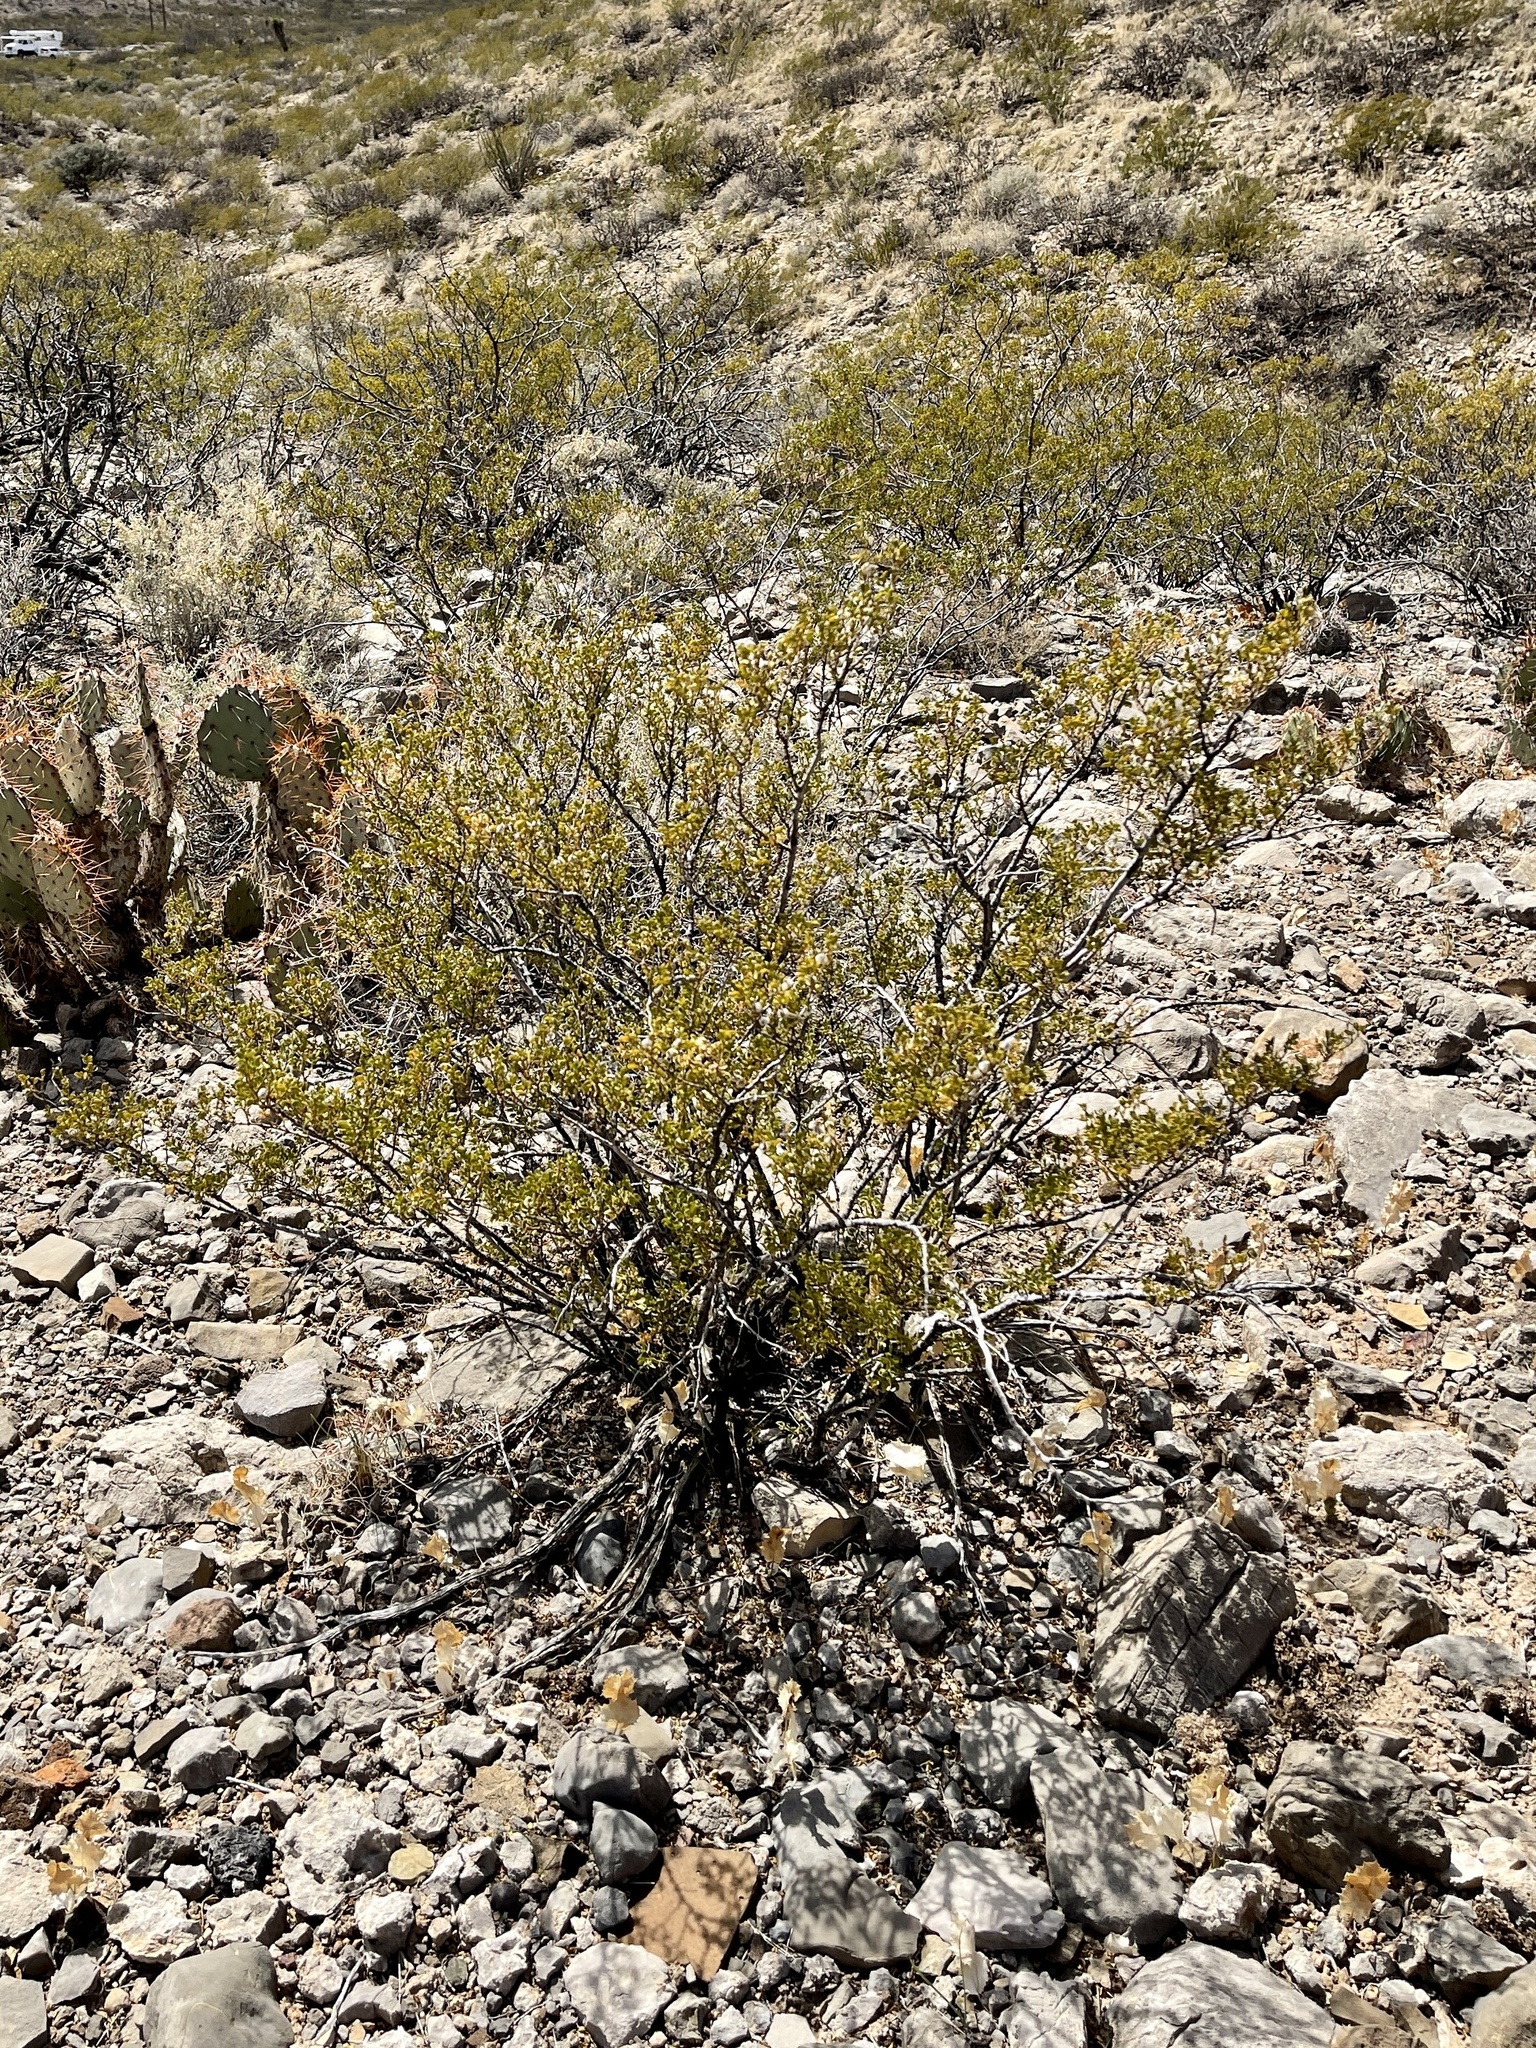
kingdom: Plantae
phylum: Tracheophyta
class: Magnoliopsida
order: Zygophyllales
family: Zygophyllaceae
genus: Larrea
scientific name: Larrea tridentata
